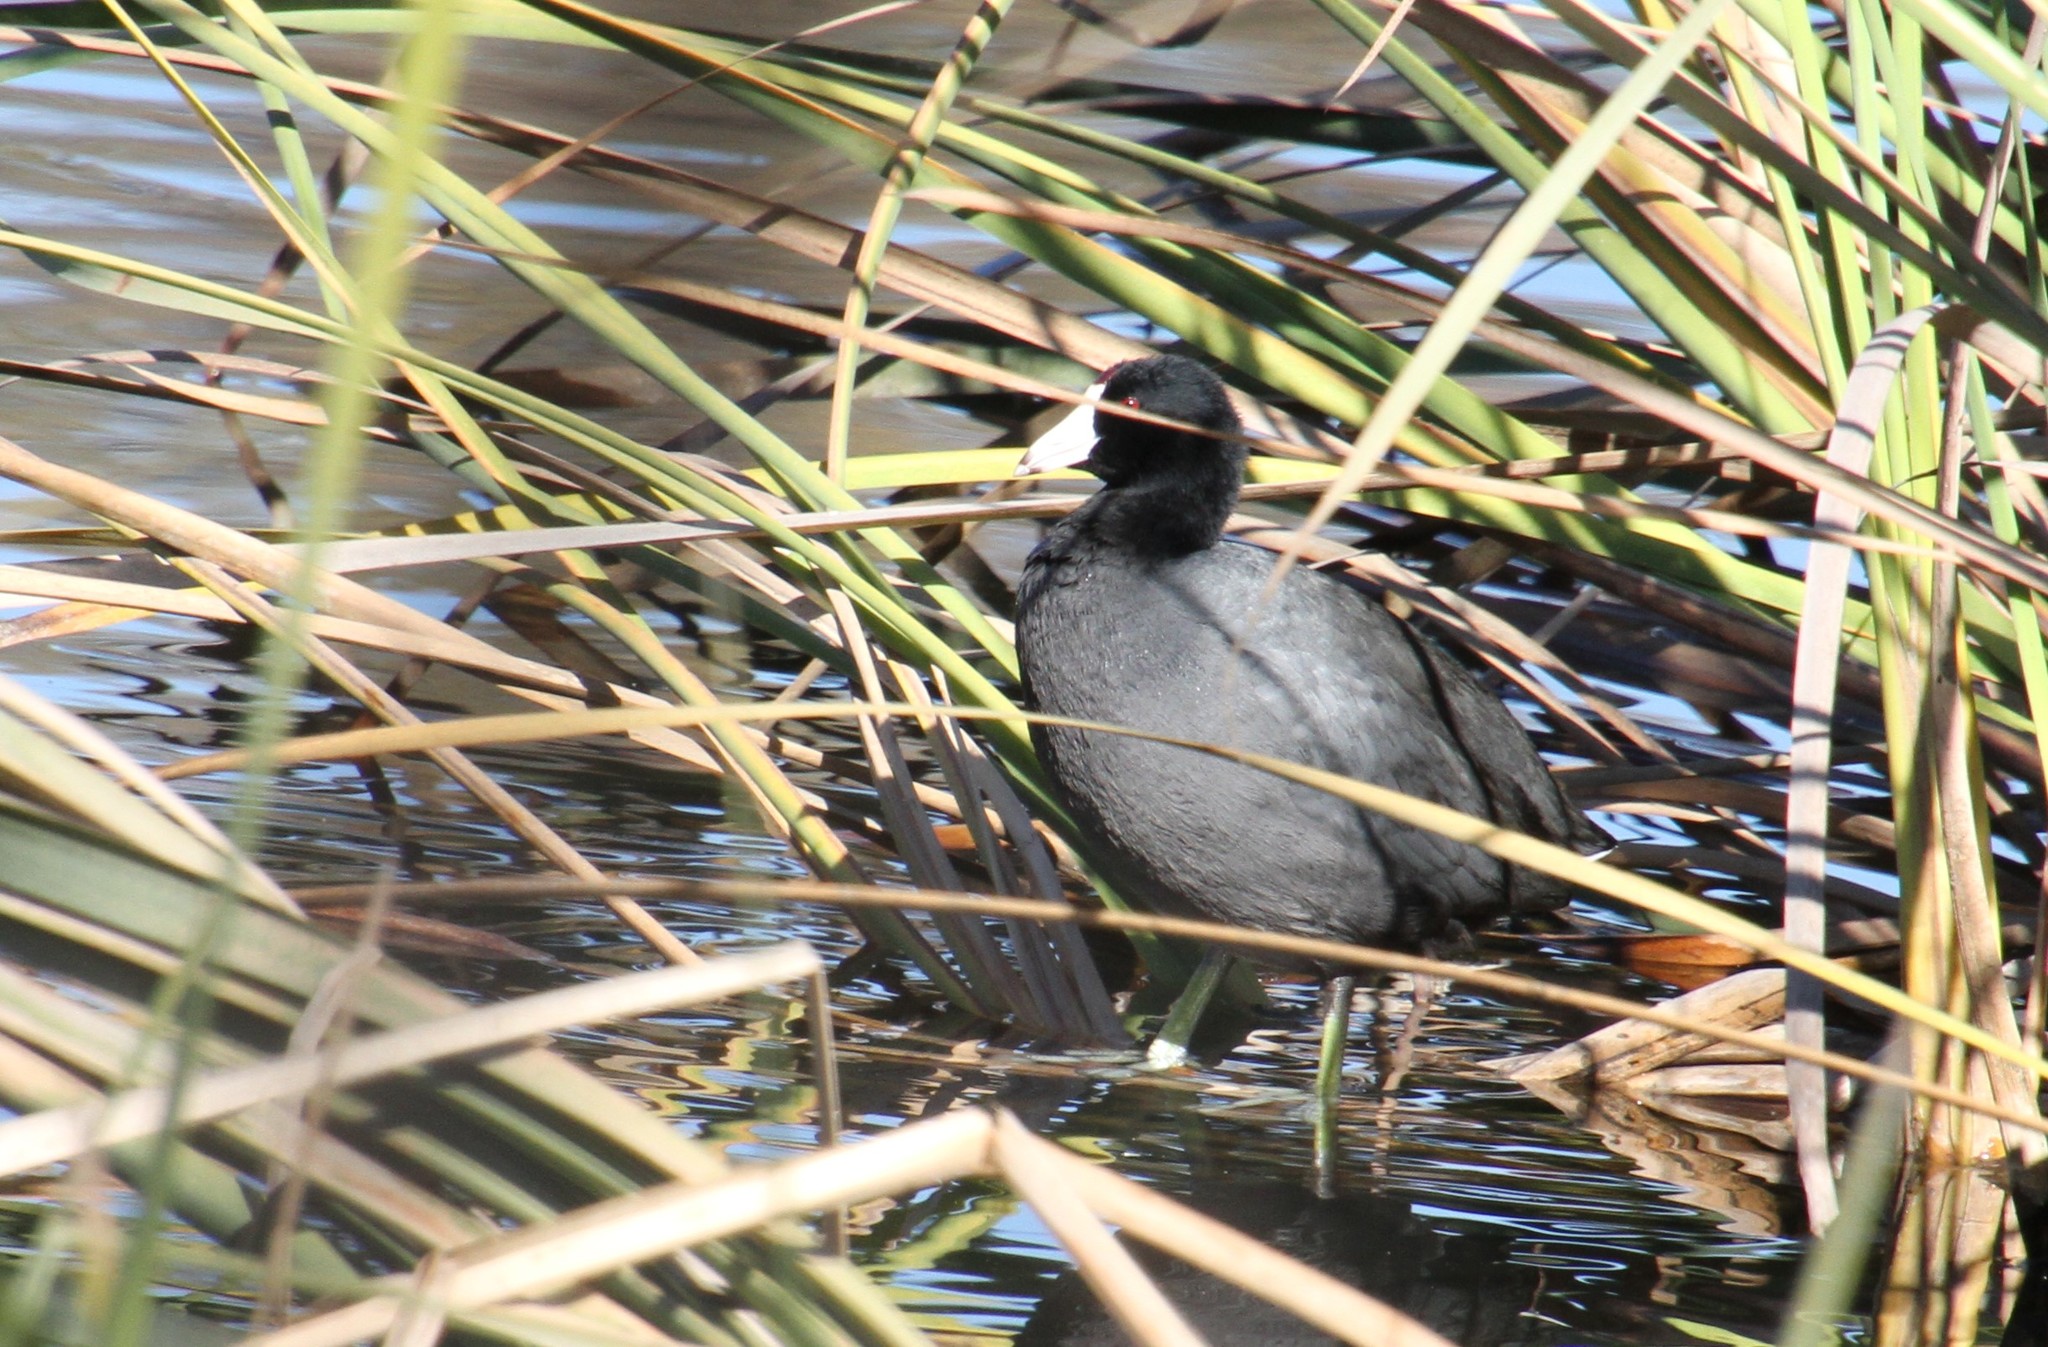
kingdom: Animalia
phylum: Chordata
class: Aves
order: Gruiformes
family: Rallidae
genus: Fulica
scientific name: Fulica americana
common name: American coot
